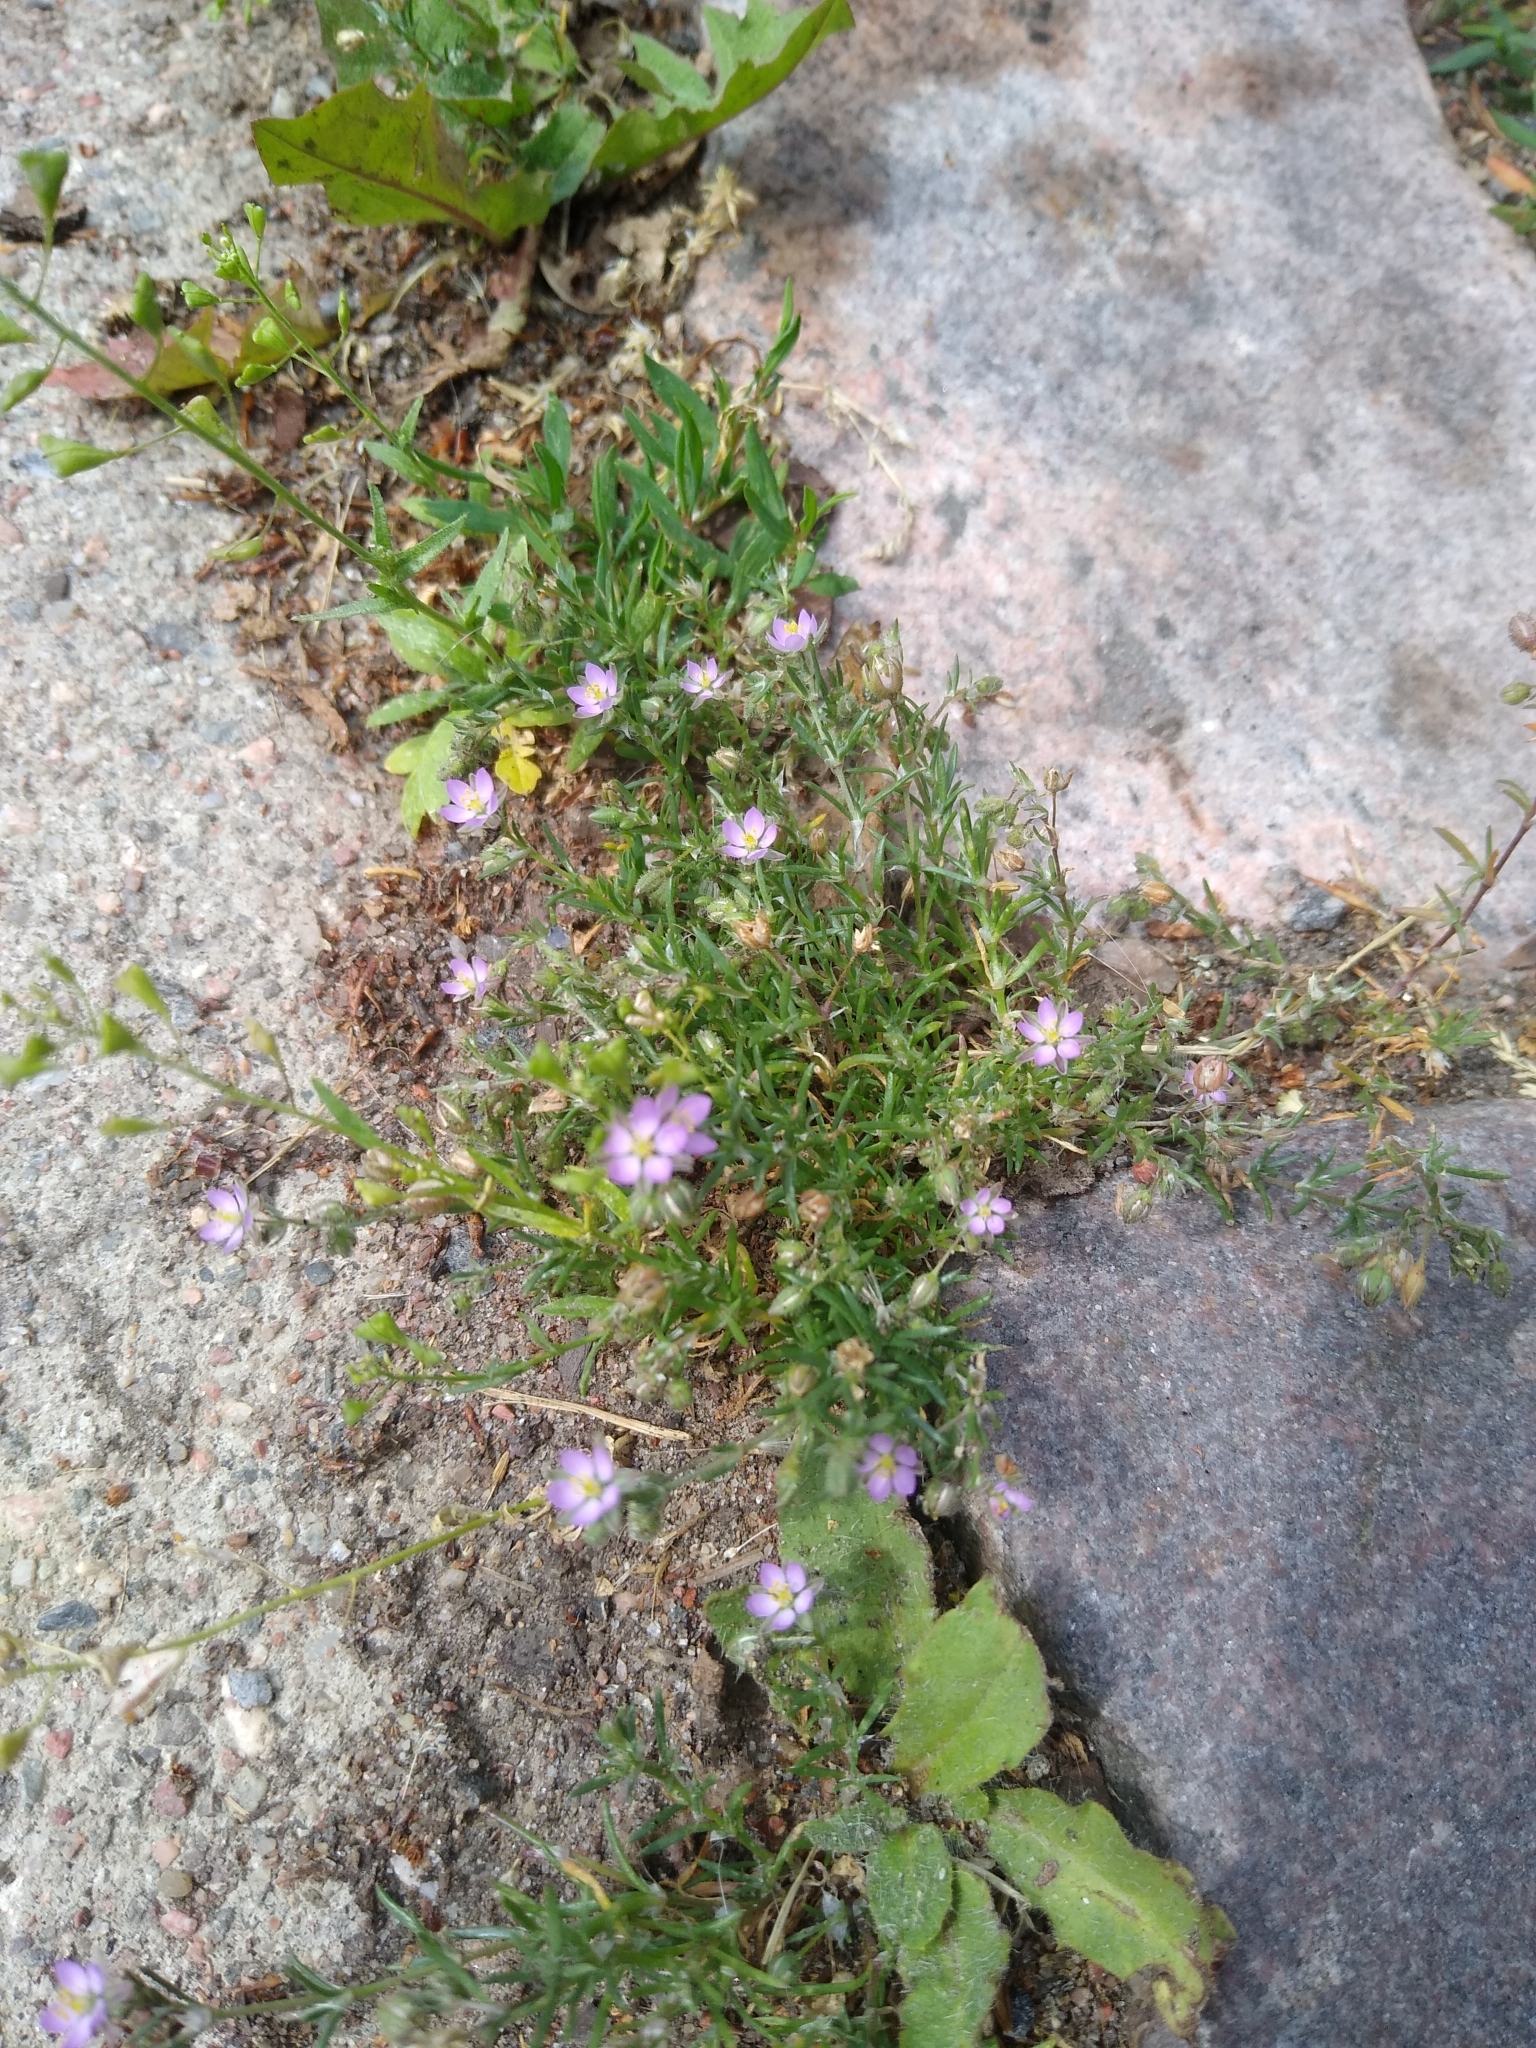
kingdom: Plantae
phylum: Tracheophyta
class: Magnoliopsida
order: Caryophyllales
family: Caryophyllaceae
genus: Spergularia
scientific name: Spergularia rubra
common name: Red sand-spurrey
